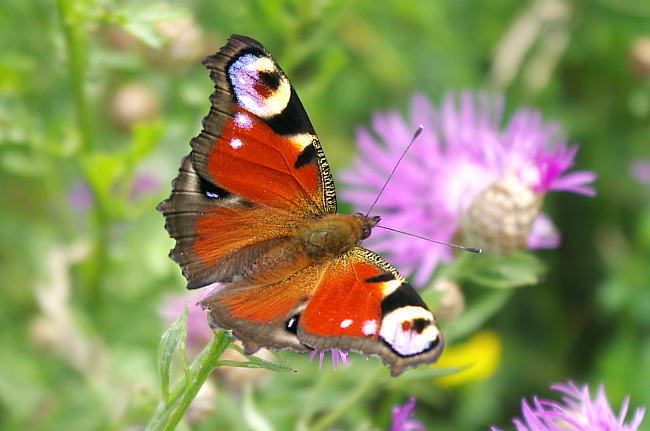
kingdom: Animalia
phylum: Arthropoda
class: Insecta
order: Lepidoptera
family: Nymphalidae
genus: Aglais
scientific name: Aglais io
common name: Peacock
